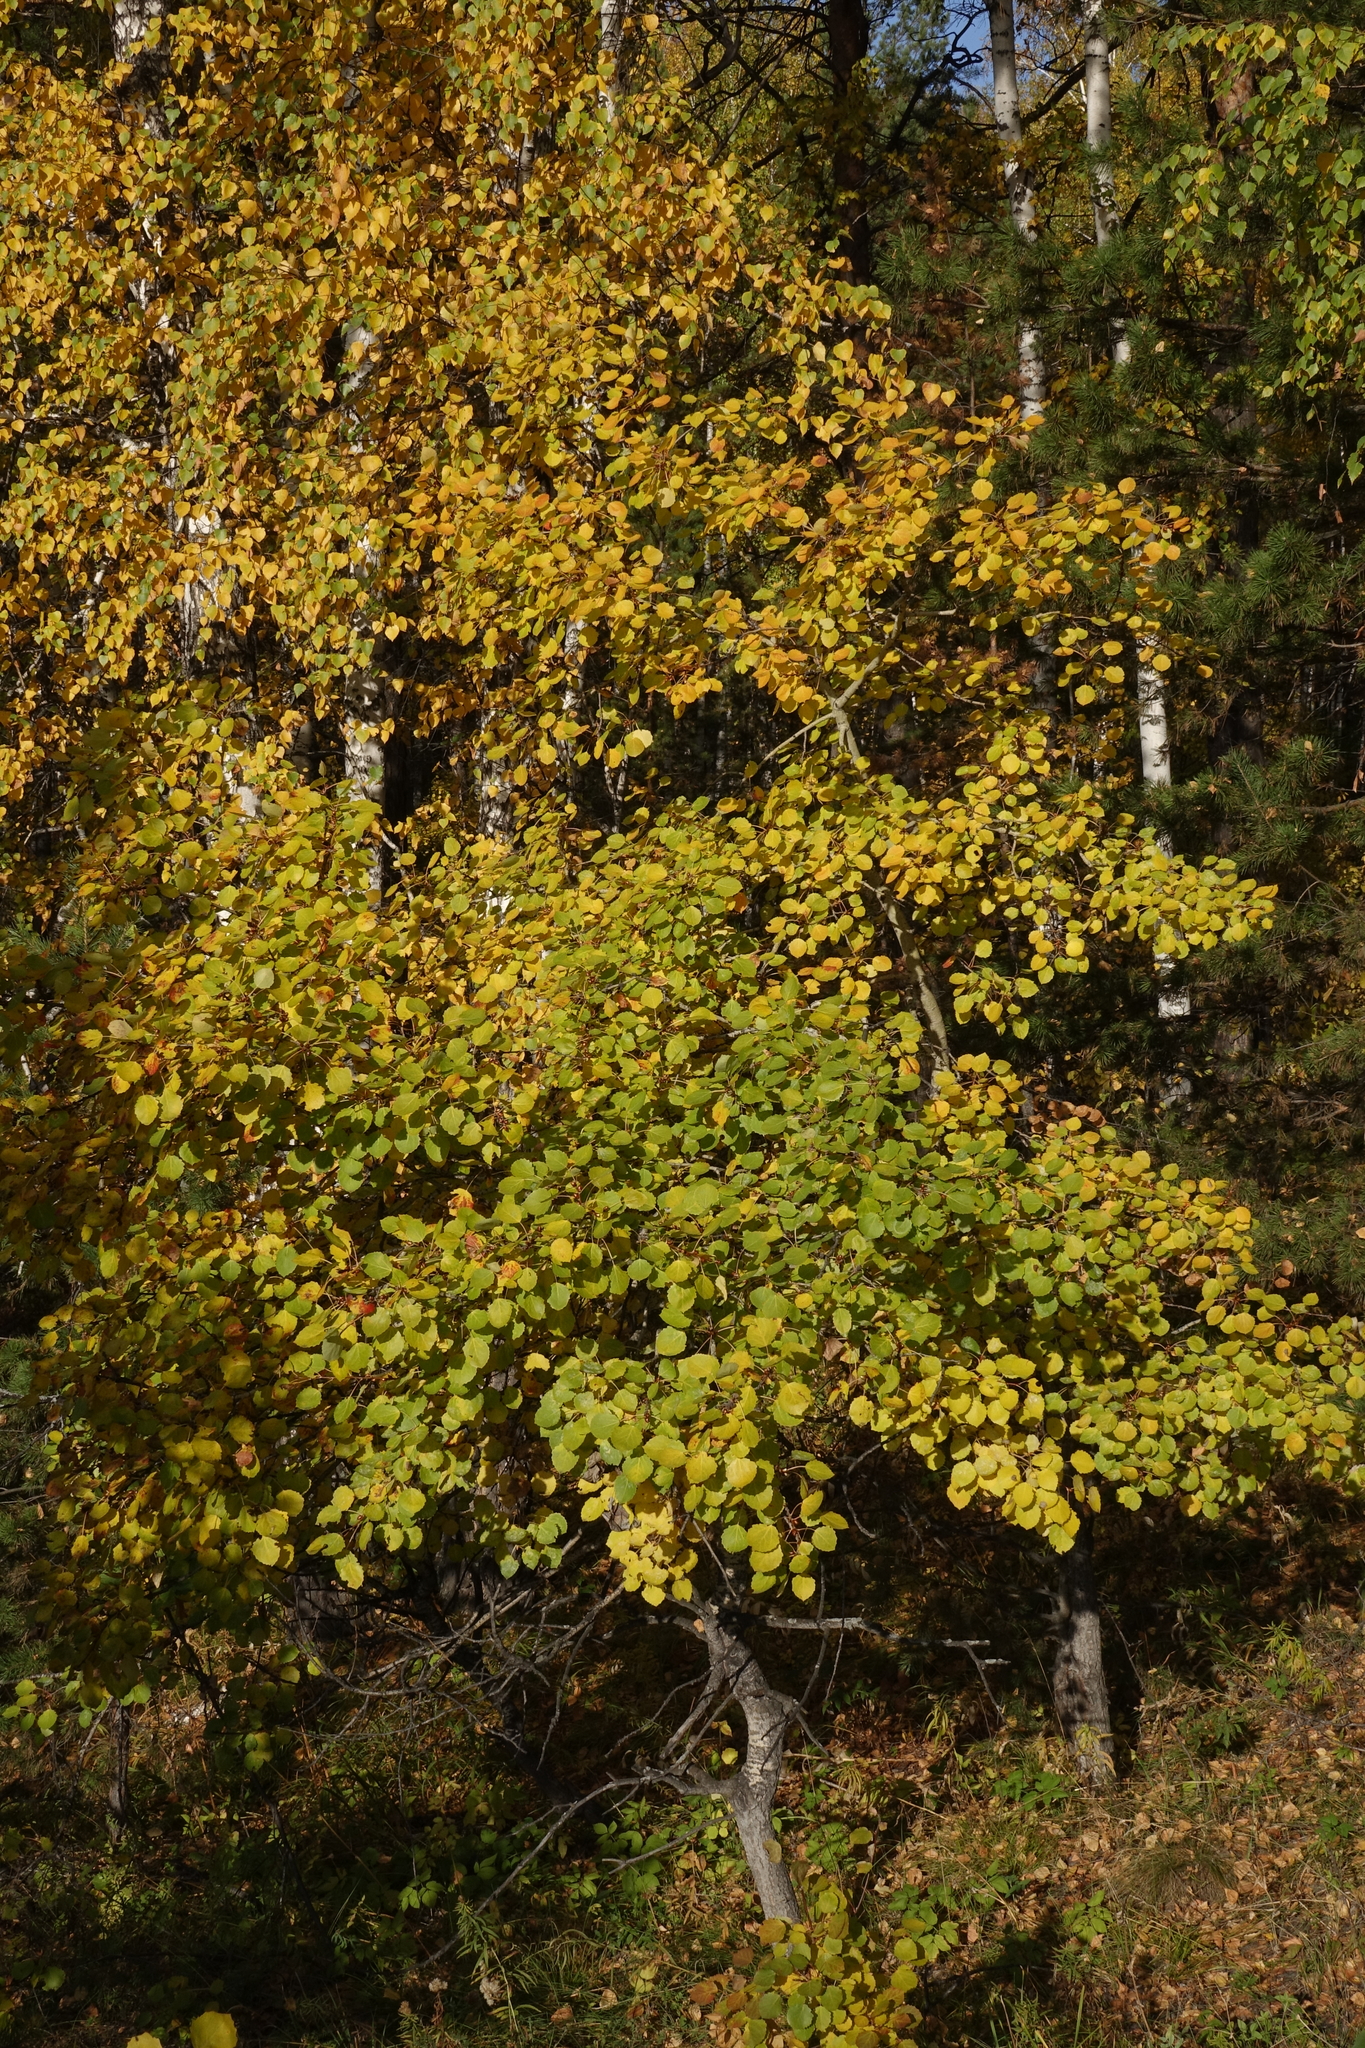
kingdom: Plantae
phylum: Tracheophyta
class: Magnoliopsida
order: Malpighiales
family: Salicaceae
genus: Populus
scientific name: Populus tremula
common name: European aspen
